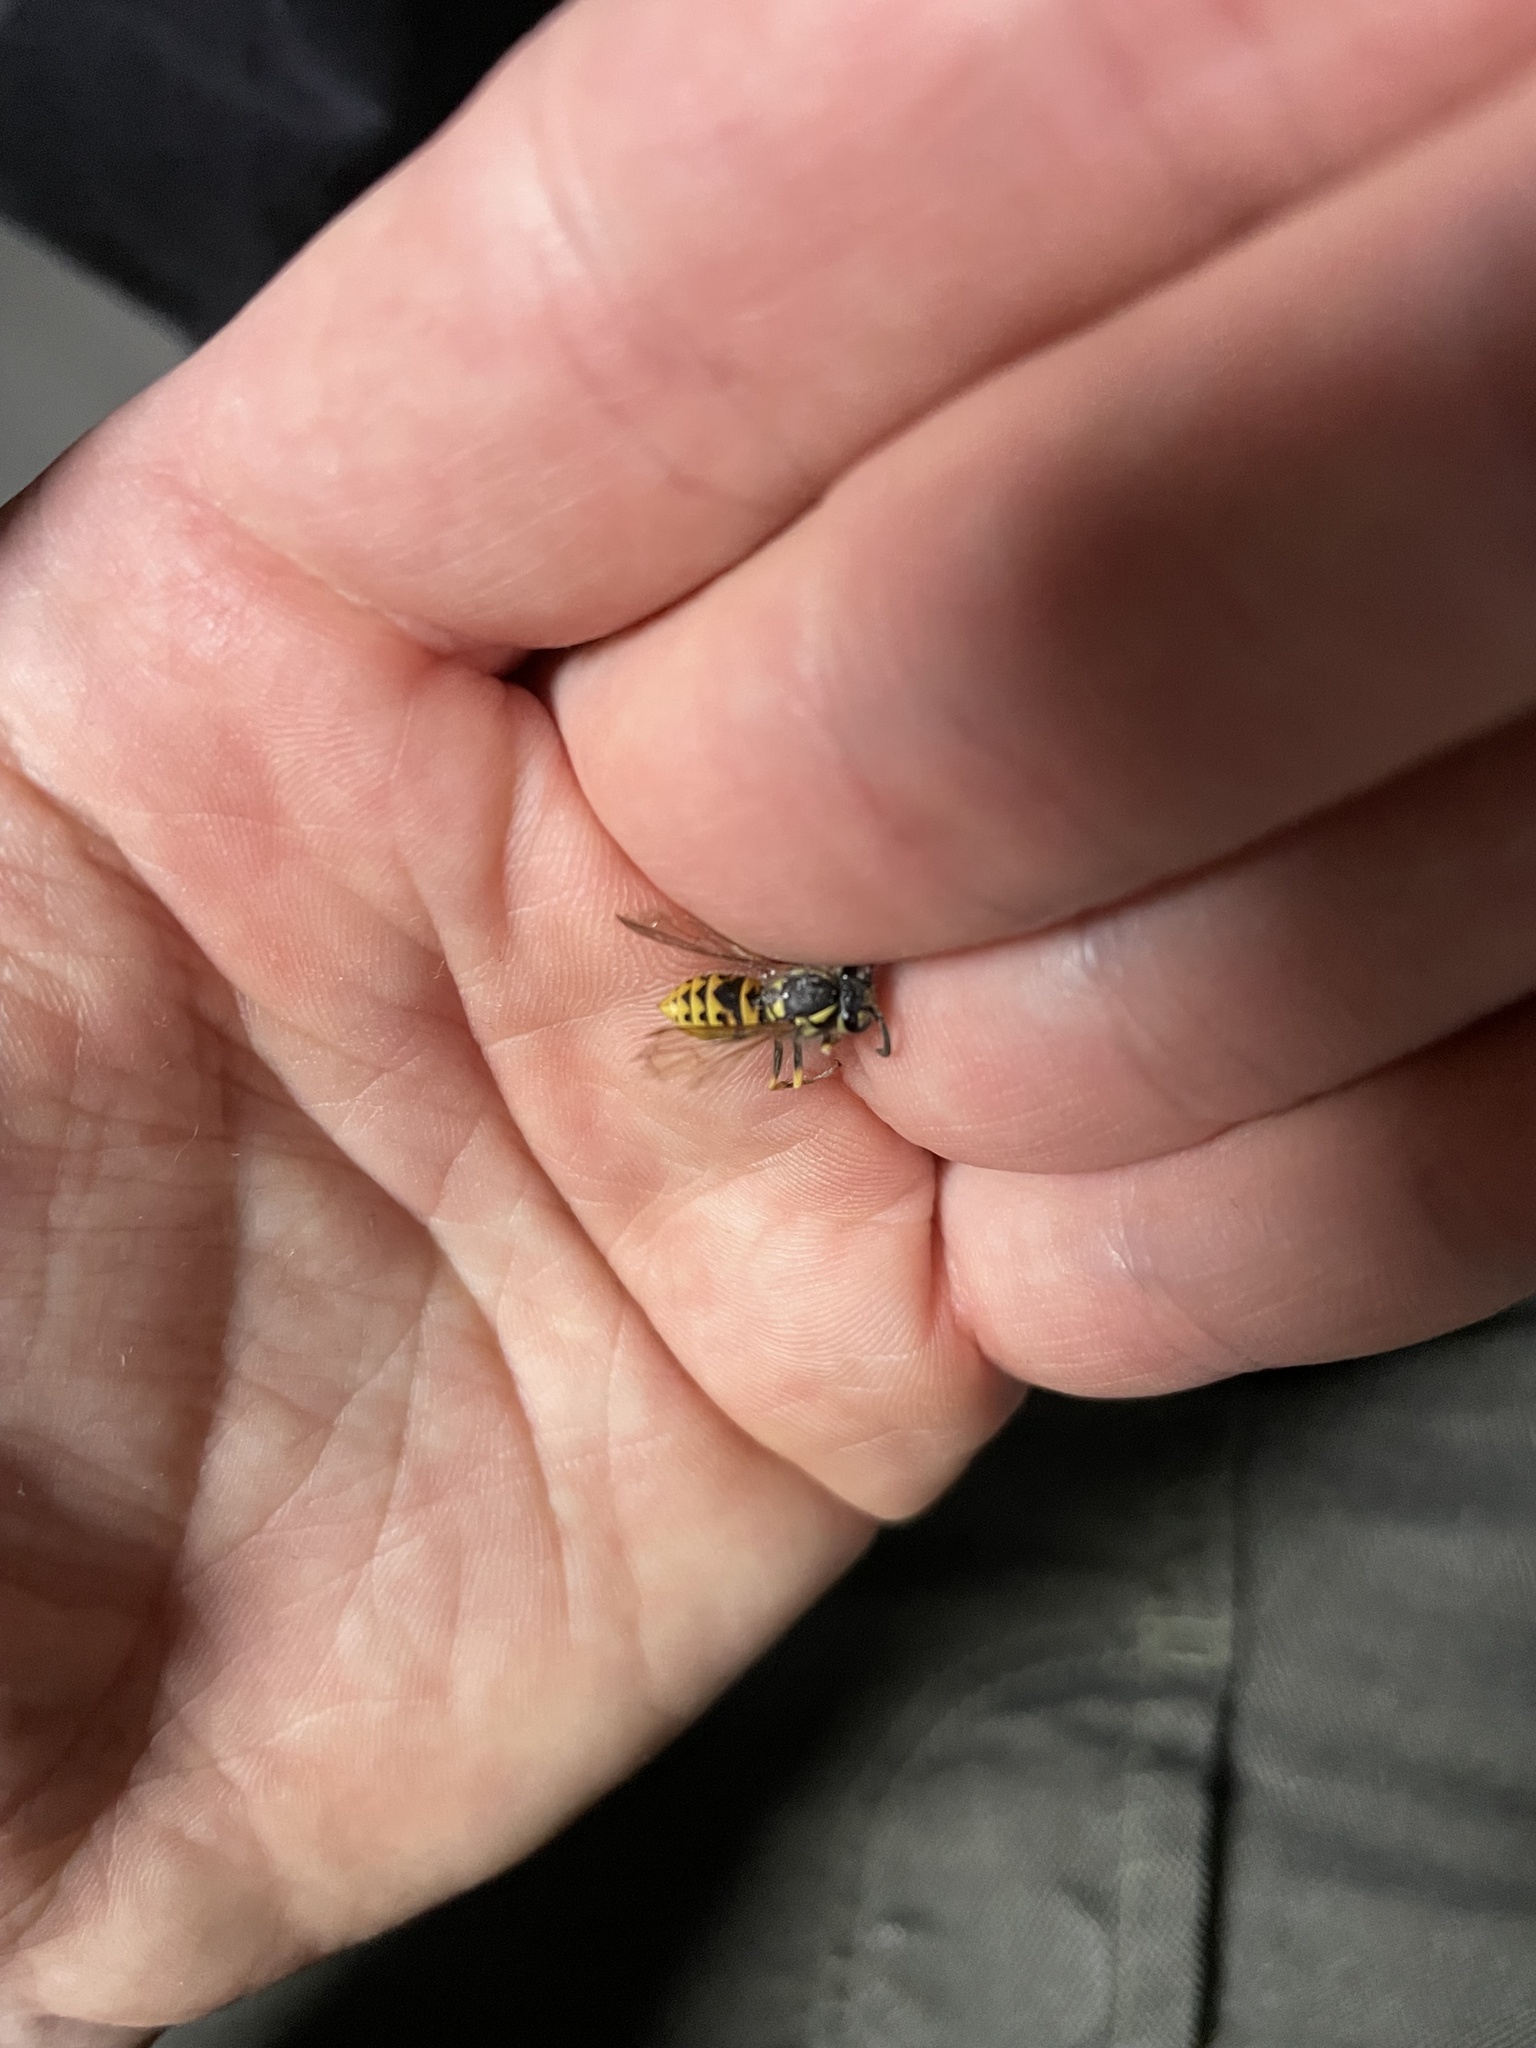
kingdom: Animalia
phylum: Arthropoda
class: Insecta
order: Hymenoptera
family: Vespidae
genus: Vespula
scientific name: Vespula germanica
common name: German wasp
